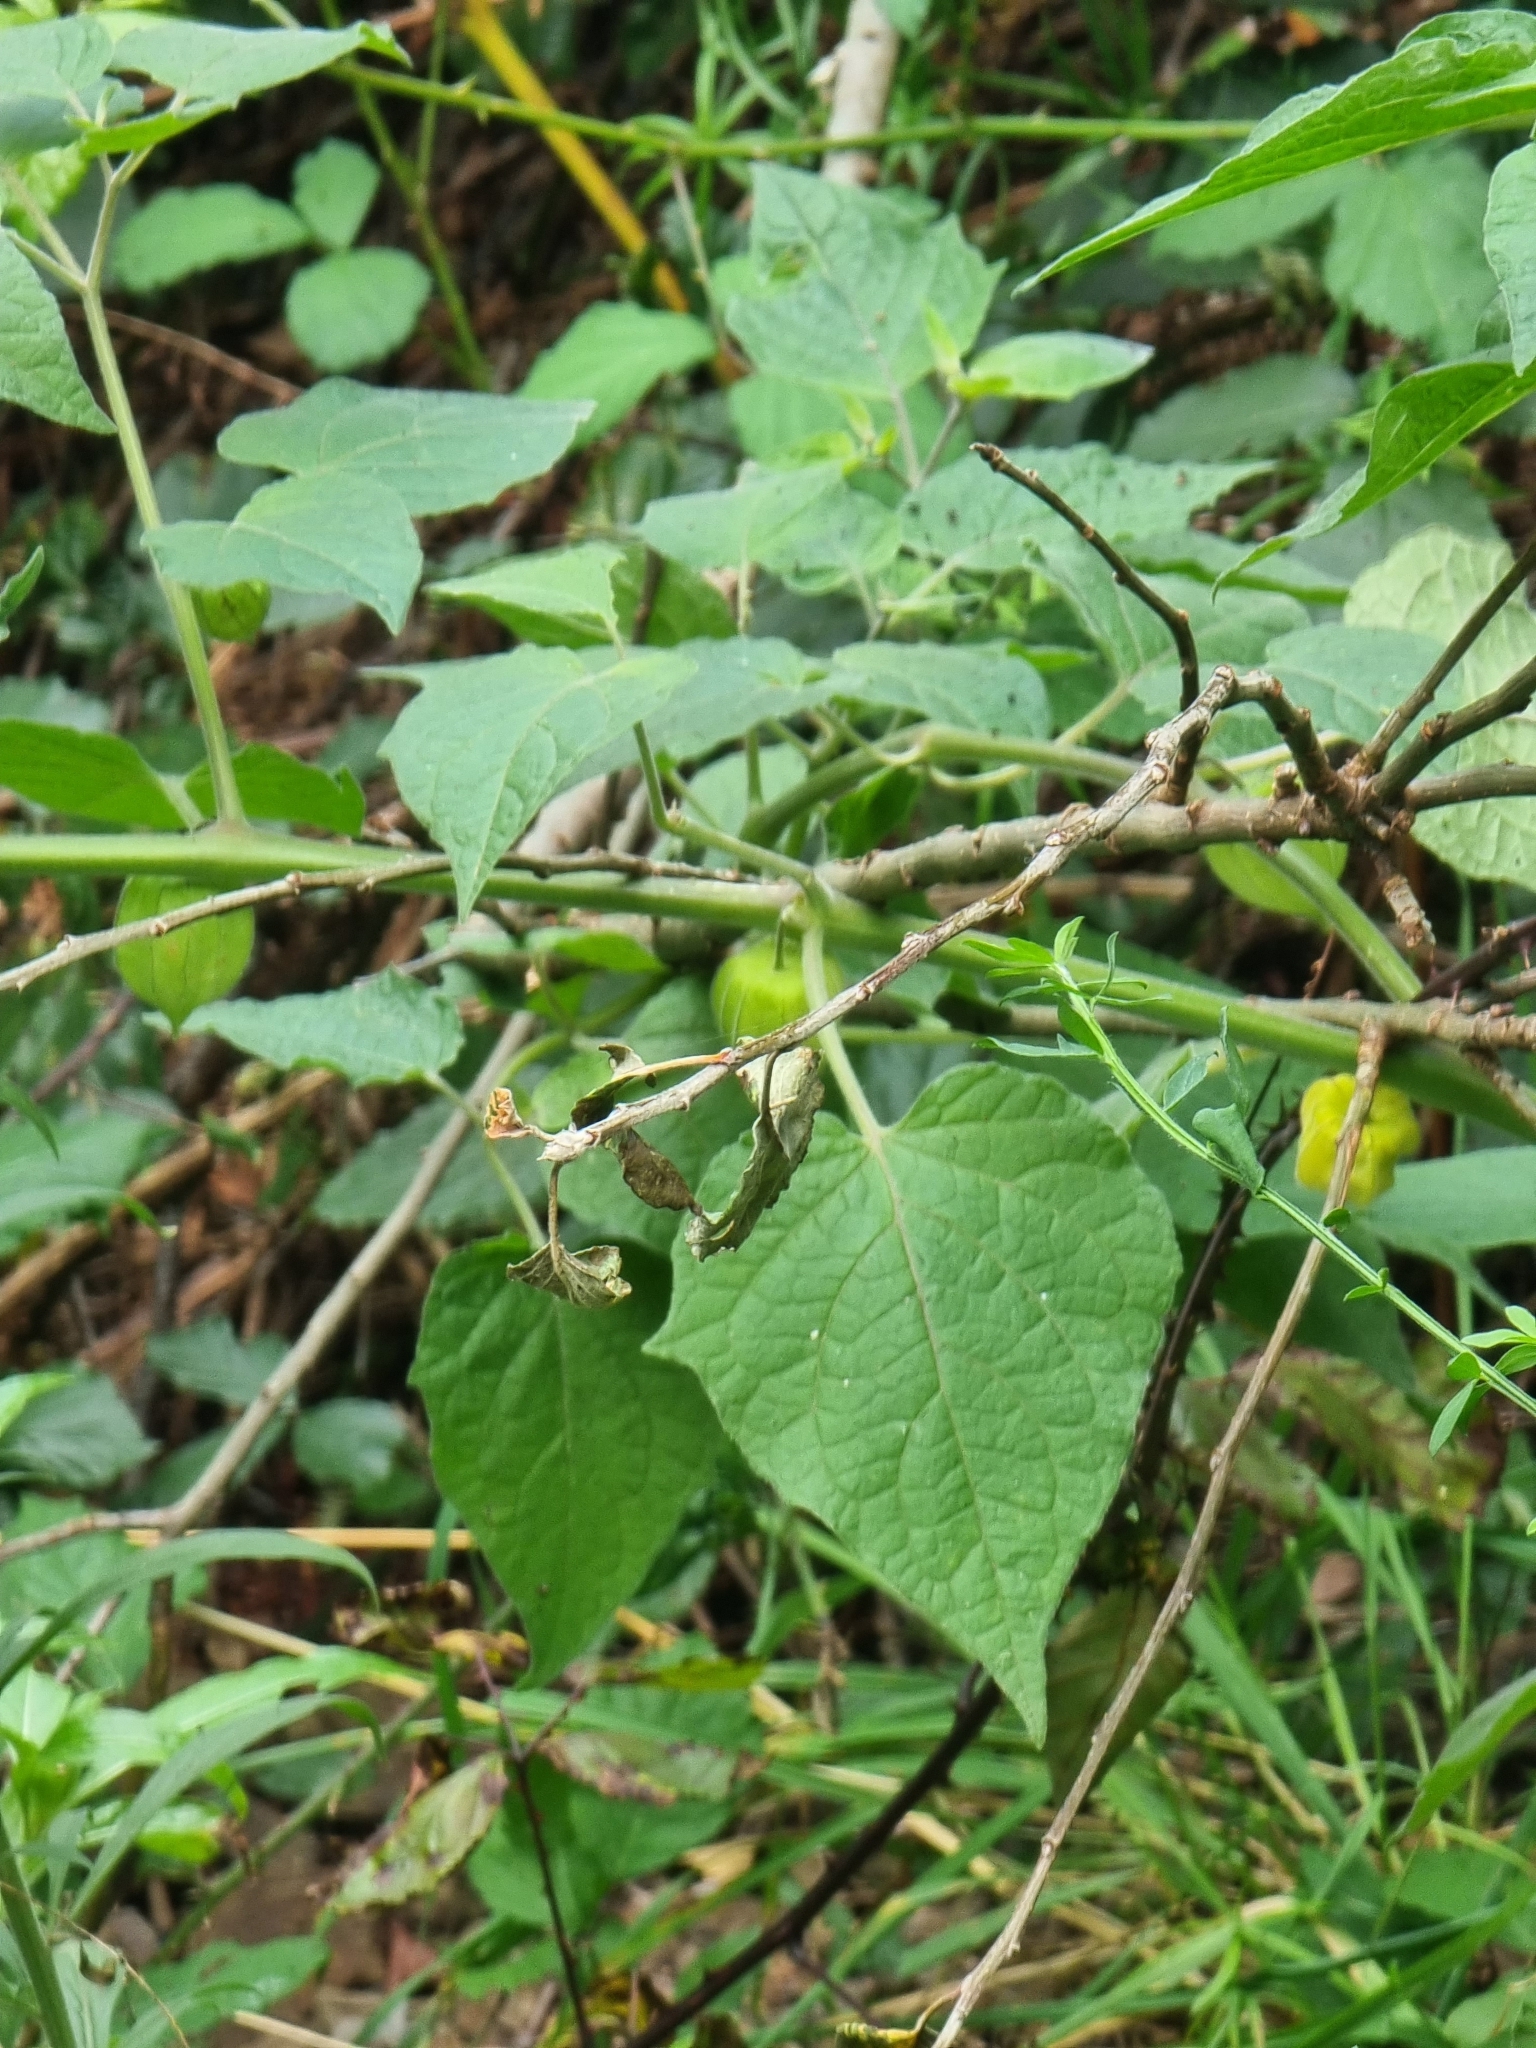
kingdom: Plantae
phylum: Tracheophyta
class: Magnoliopsida
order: Solanales
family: Solanaceae
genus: Physalis
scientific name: Physalis peruviana
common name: Cape-gooseberry
